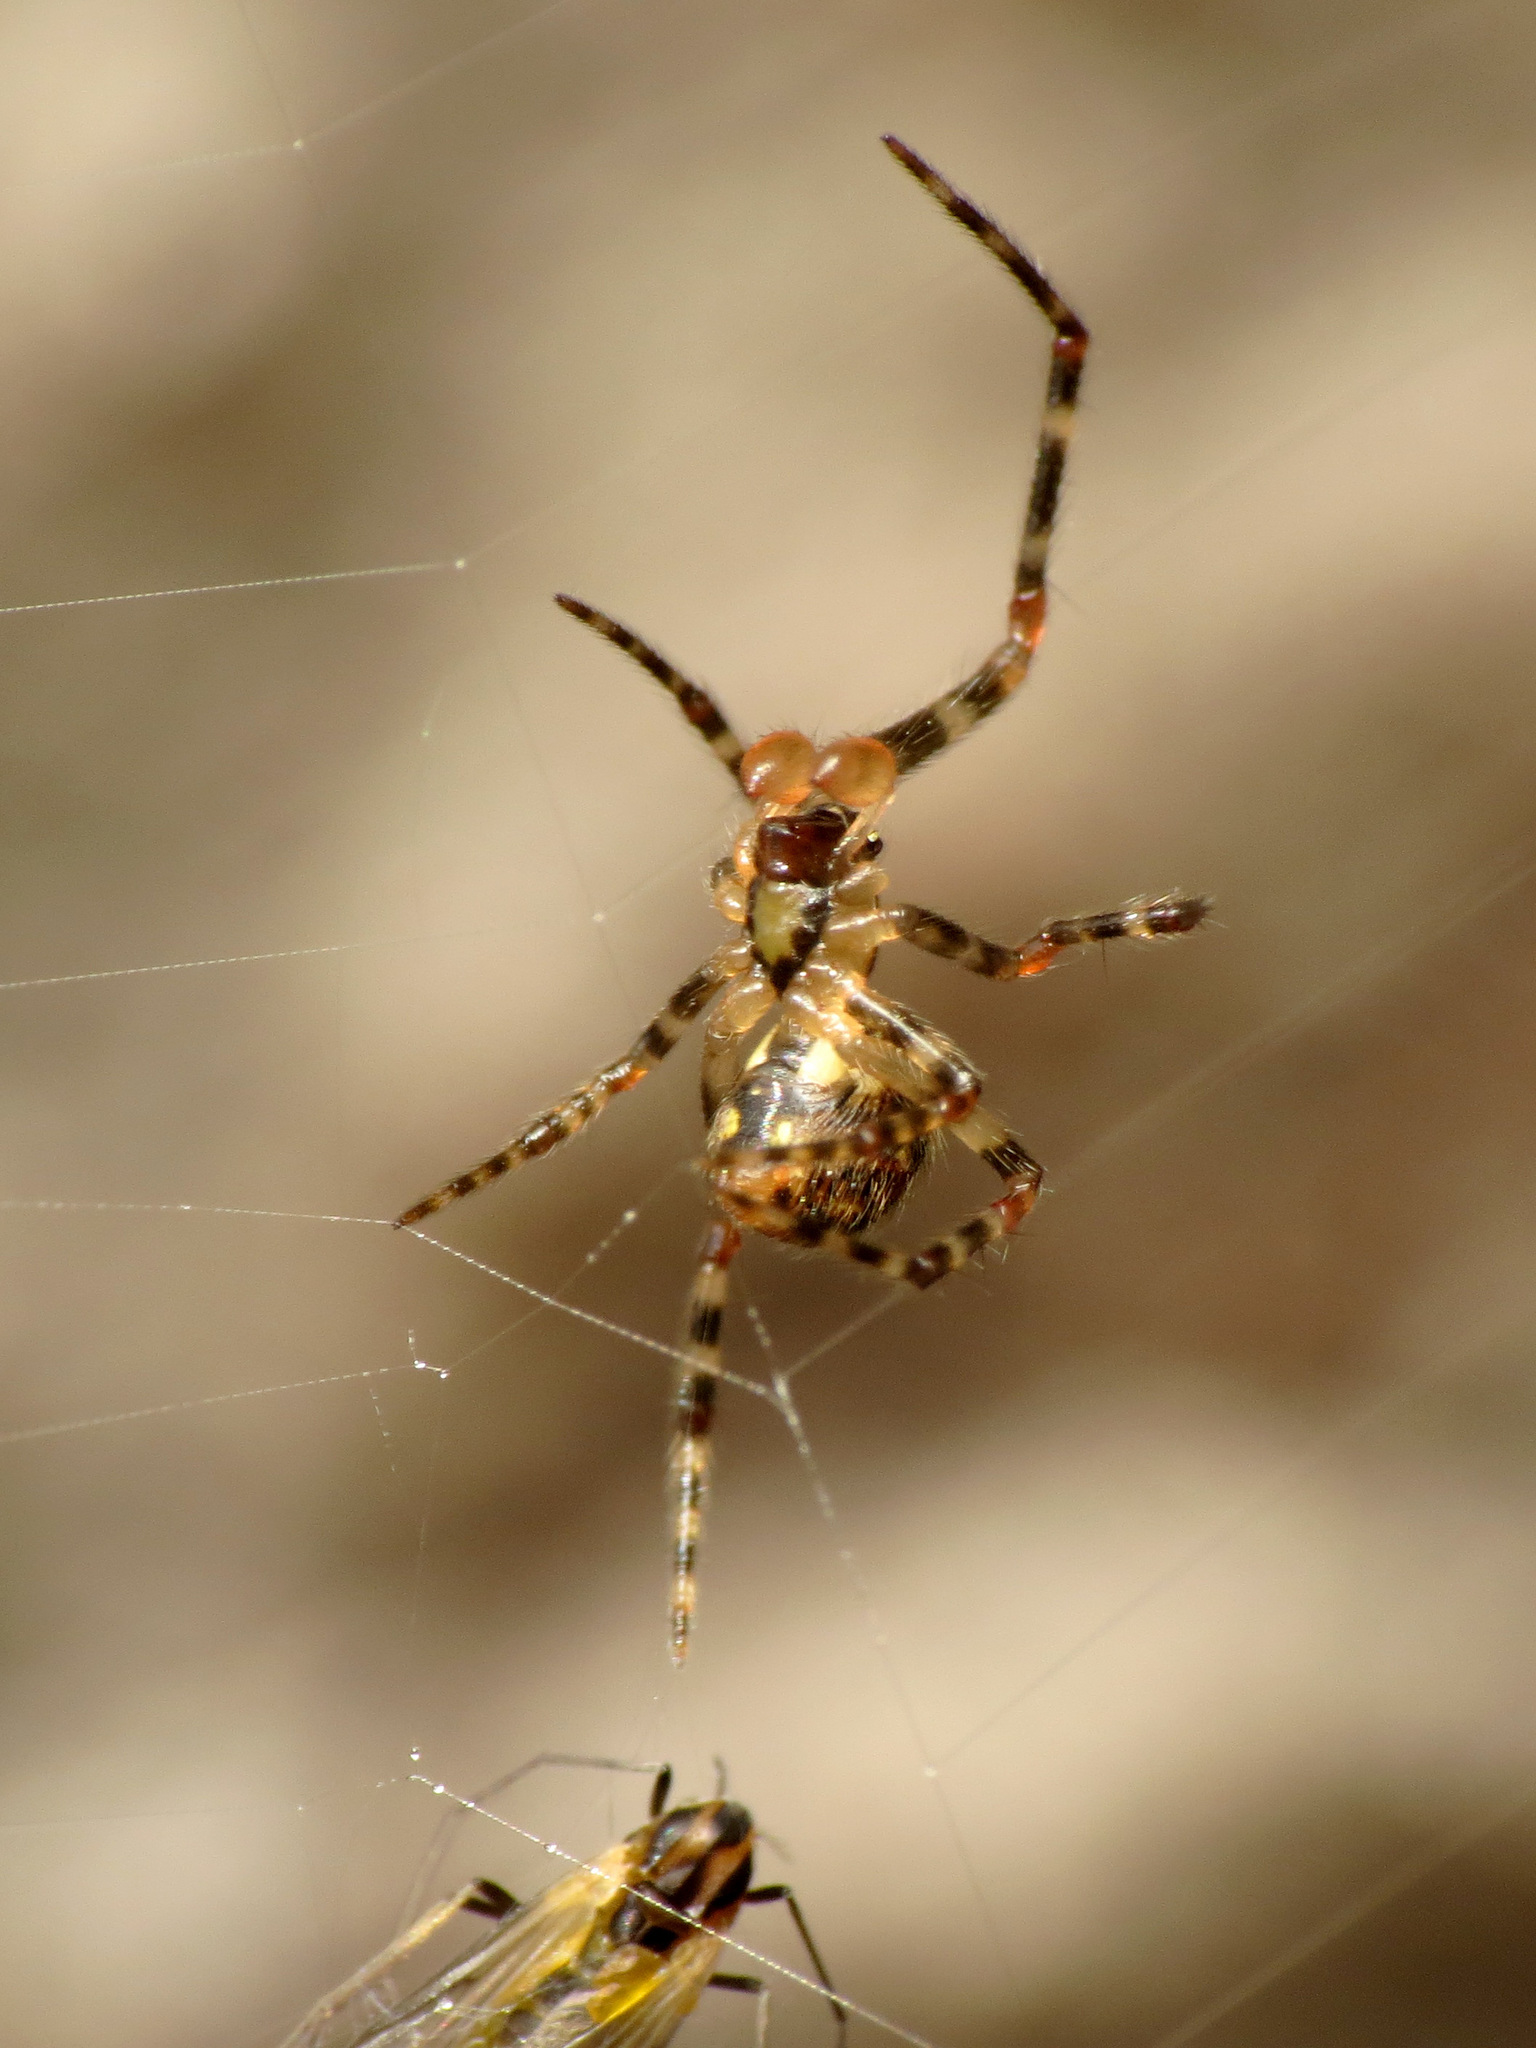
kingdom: Animalia
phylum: Arthropoda
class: Arachnida
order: Araneae
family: Theridiidae
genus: Theridion
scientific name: Theridion zantholabio
